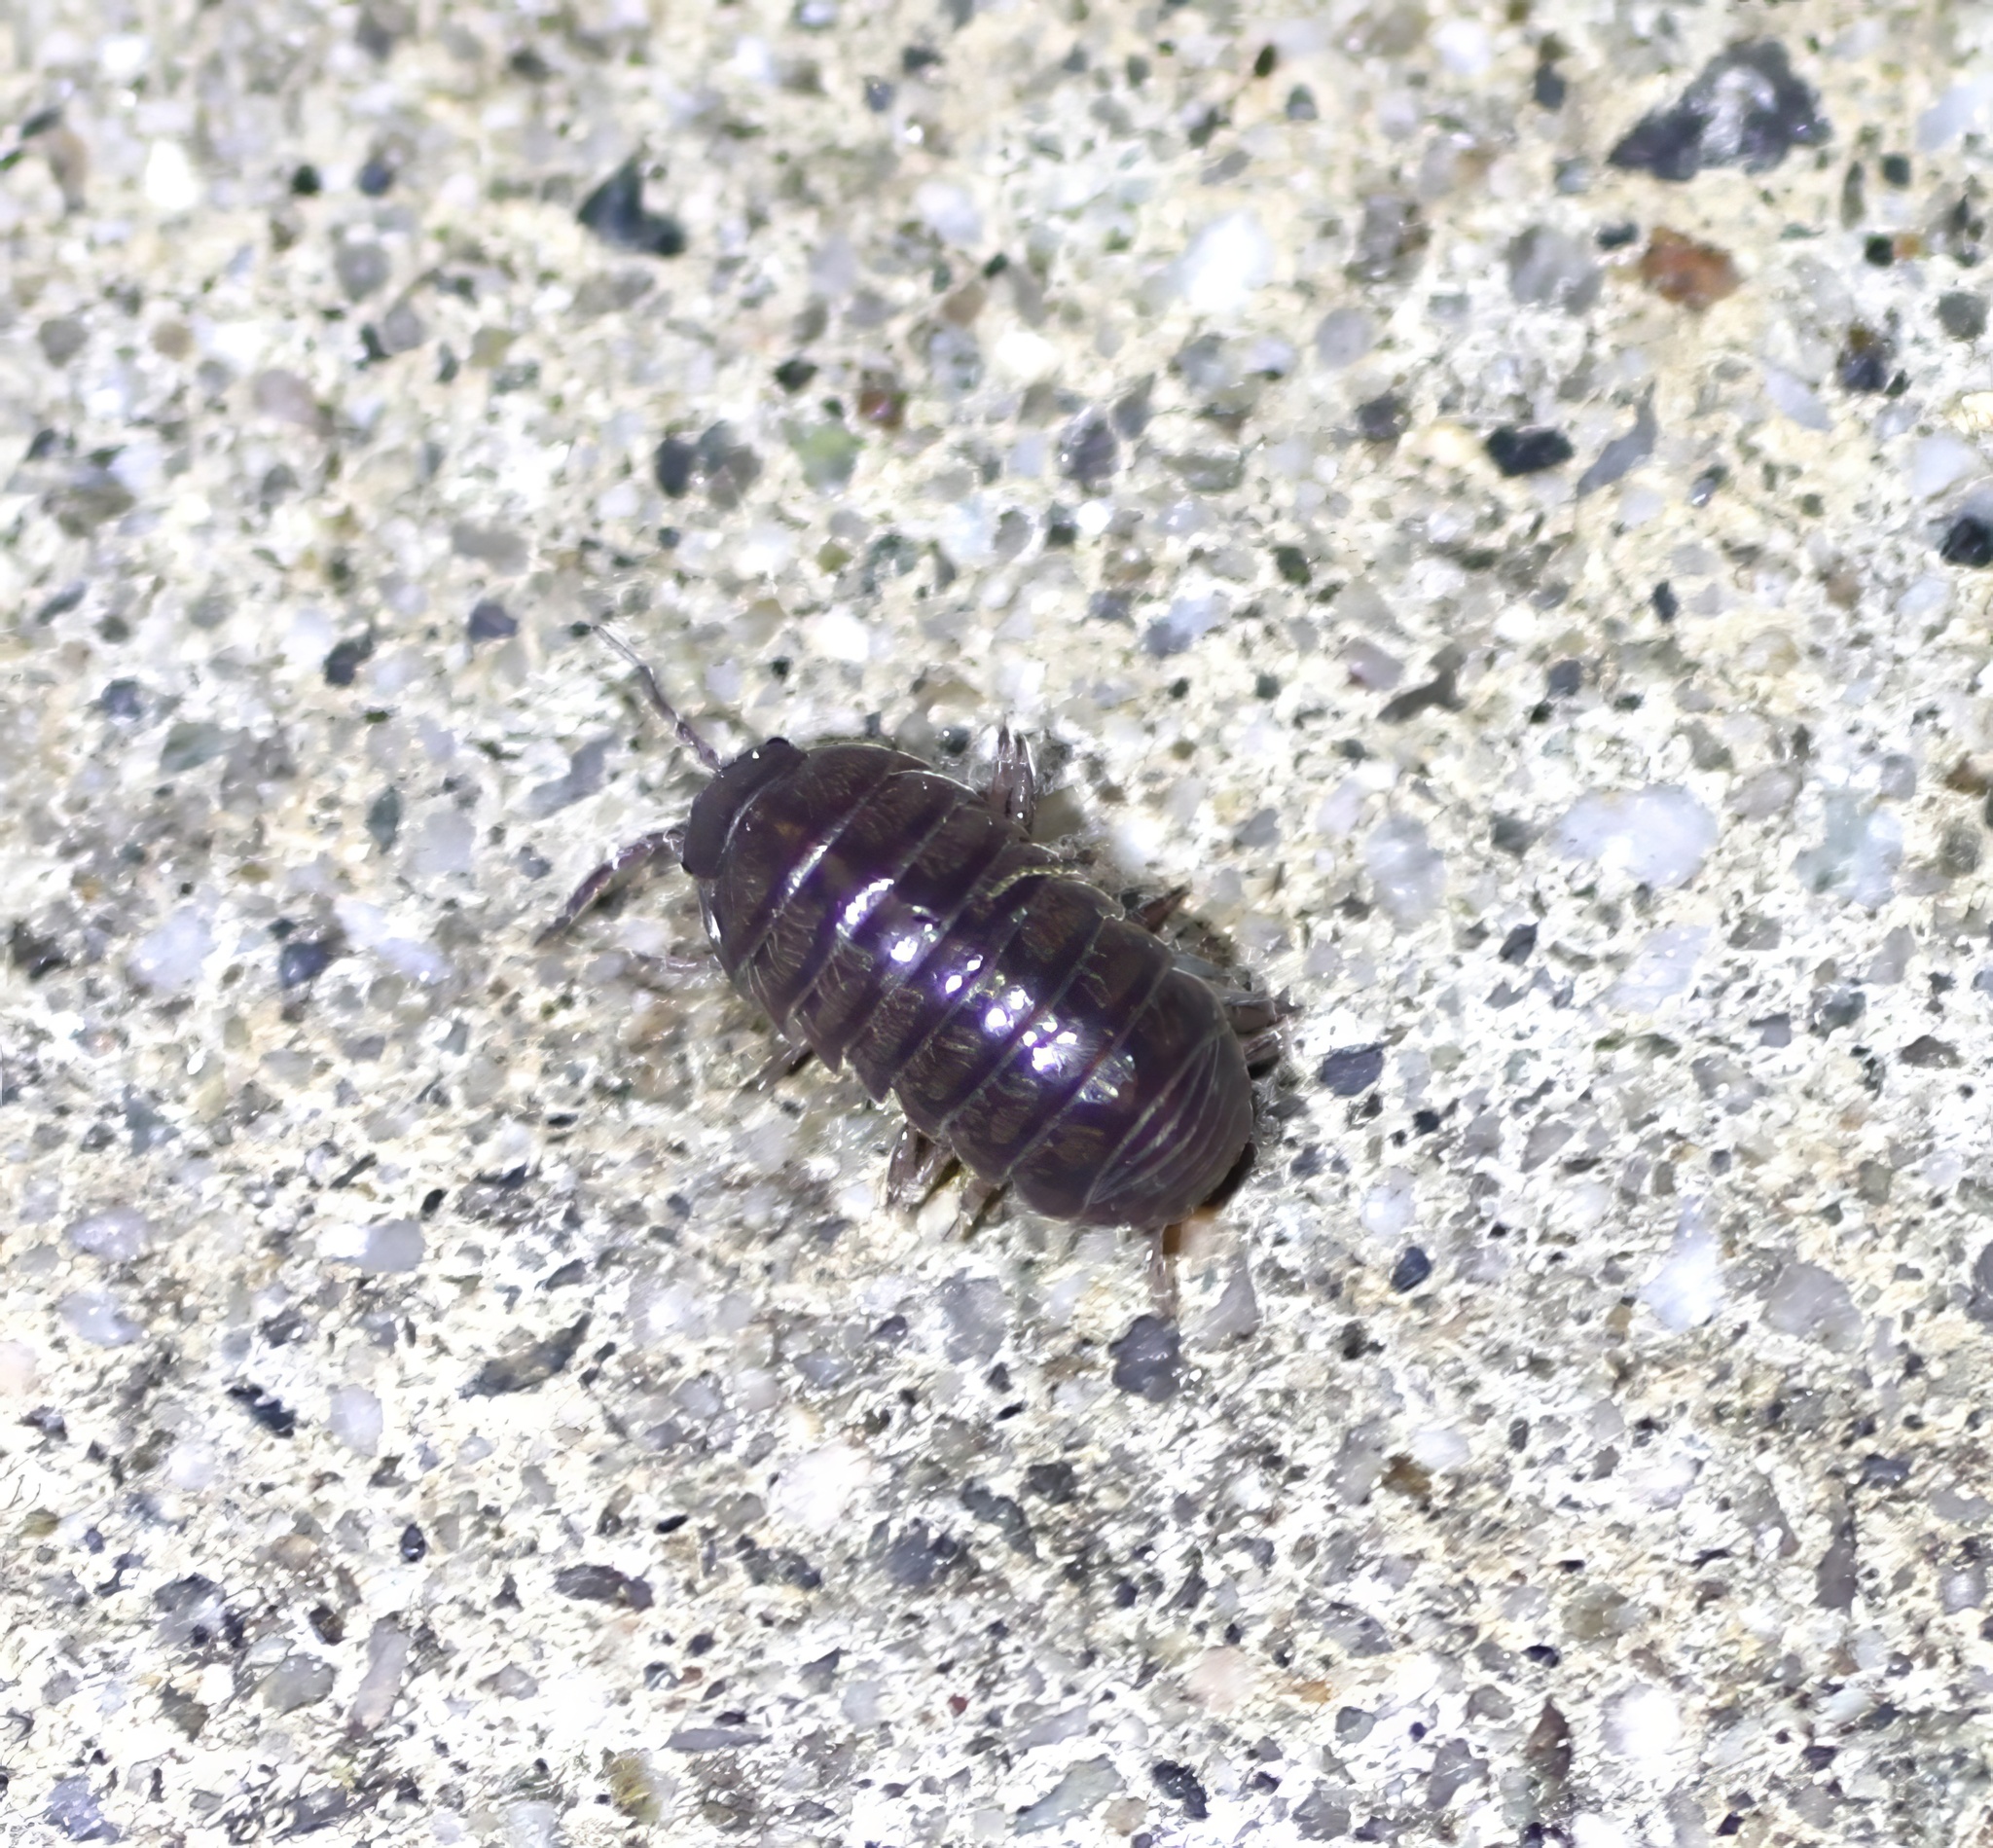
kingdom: Animalia
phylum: Arthropoda
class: Malacostraca
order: Isopoda
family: Armadillidiidae
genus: Armadillidium
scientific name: Armadillidium vulgare
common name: Common pill woodlouse
